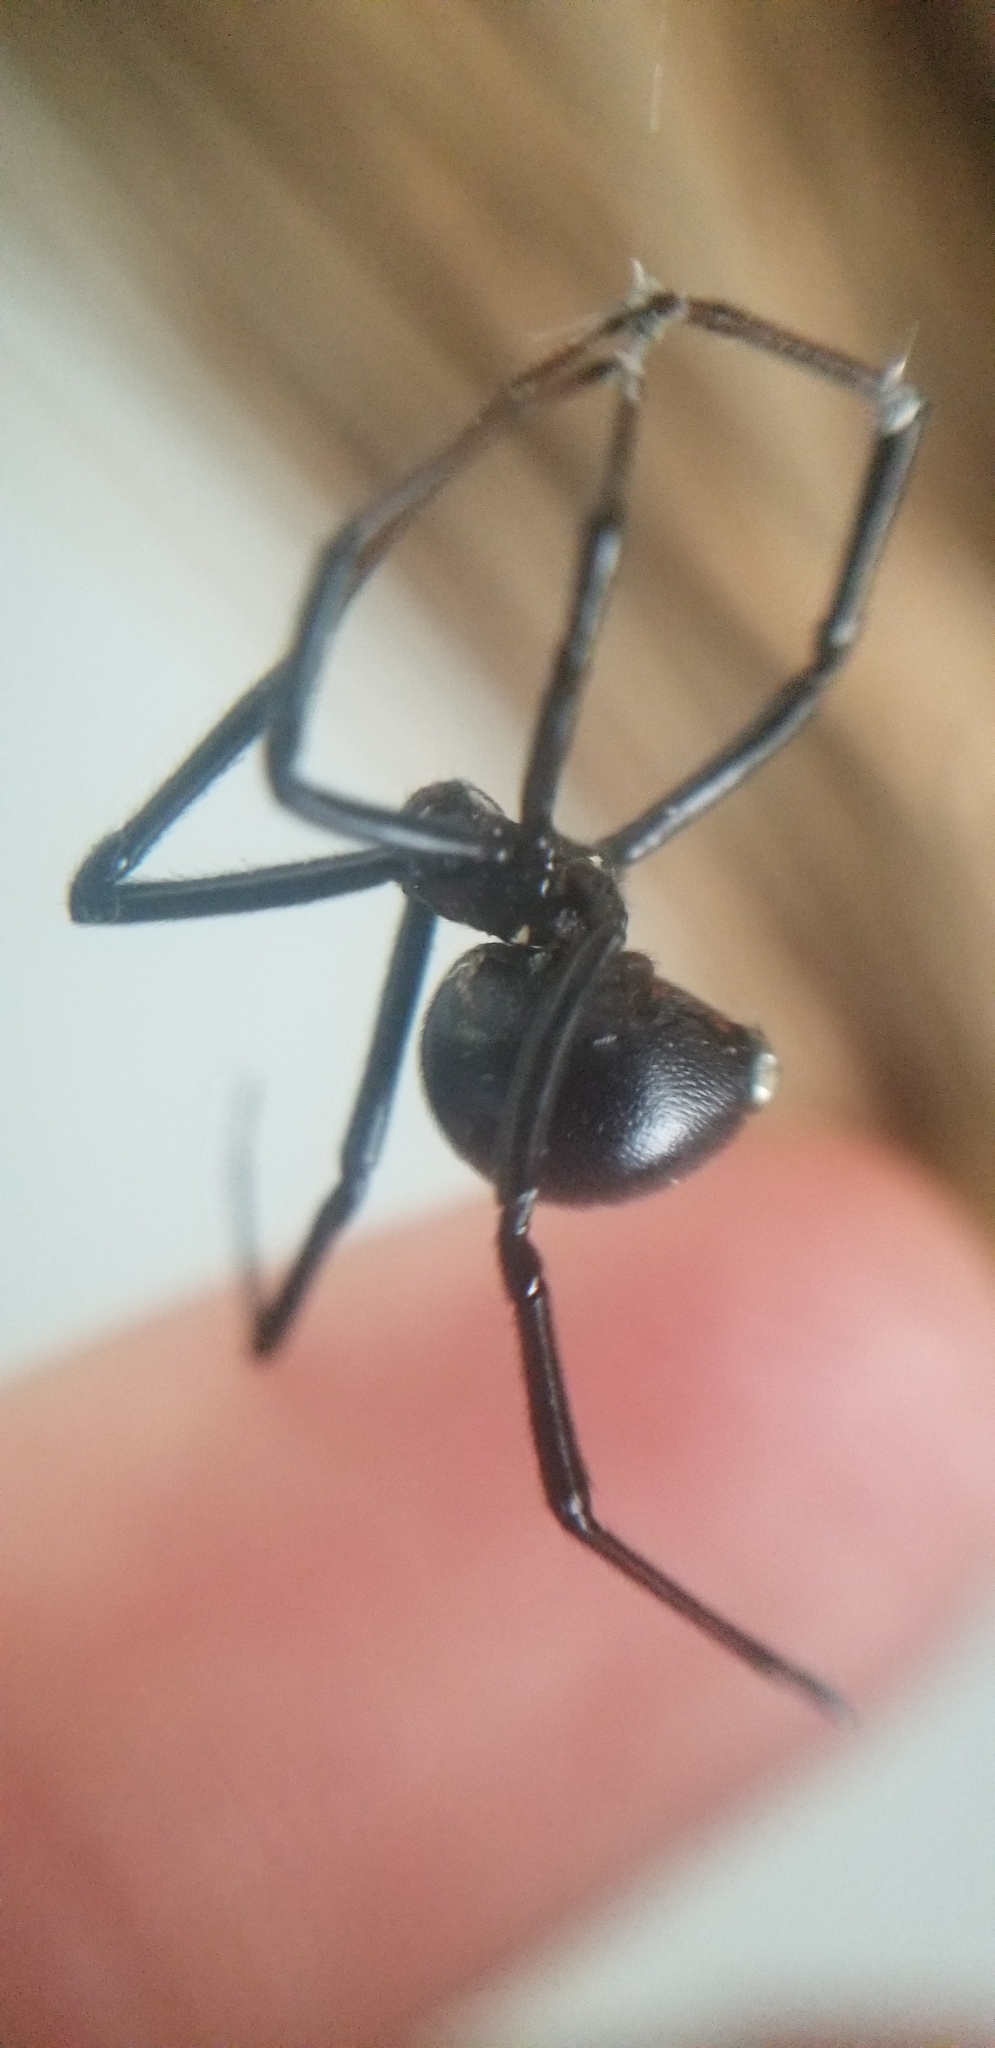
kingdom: Animalia
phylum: Arthropoda
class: Arachnida
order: Araneae
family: Theridiidae
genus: Latrodectus
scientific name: Latrodectus hesperus
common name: Western black widow
